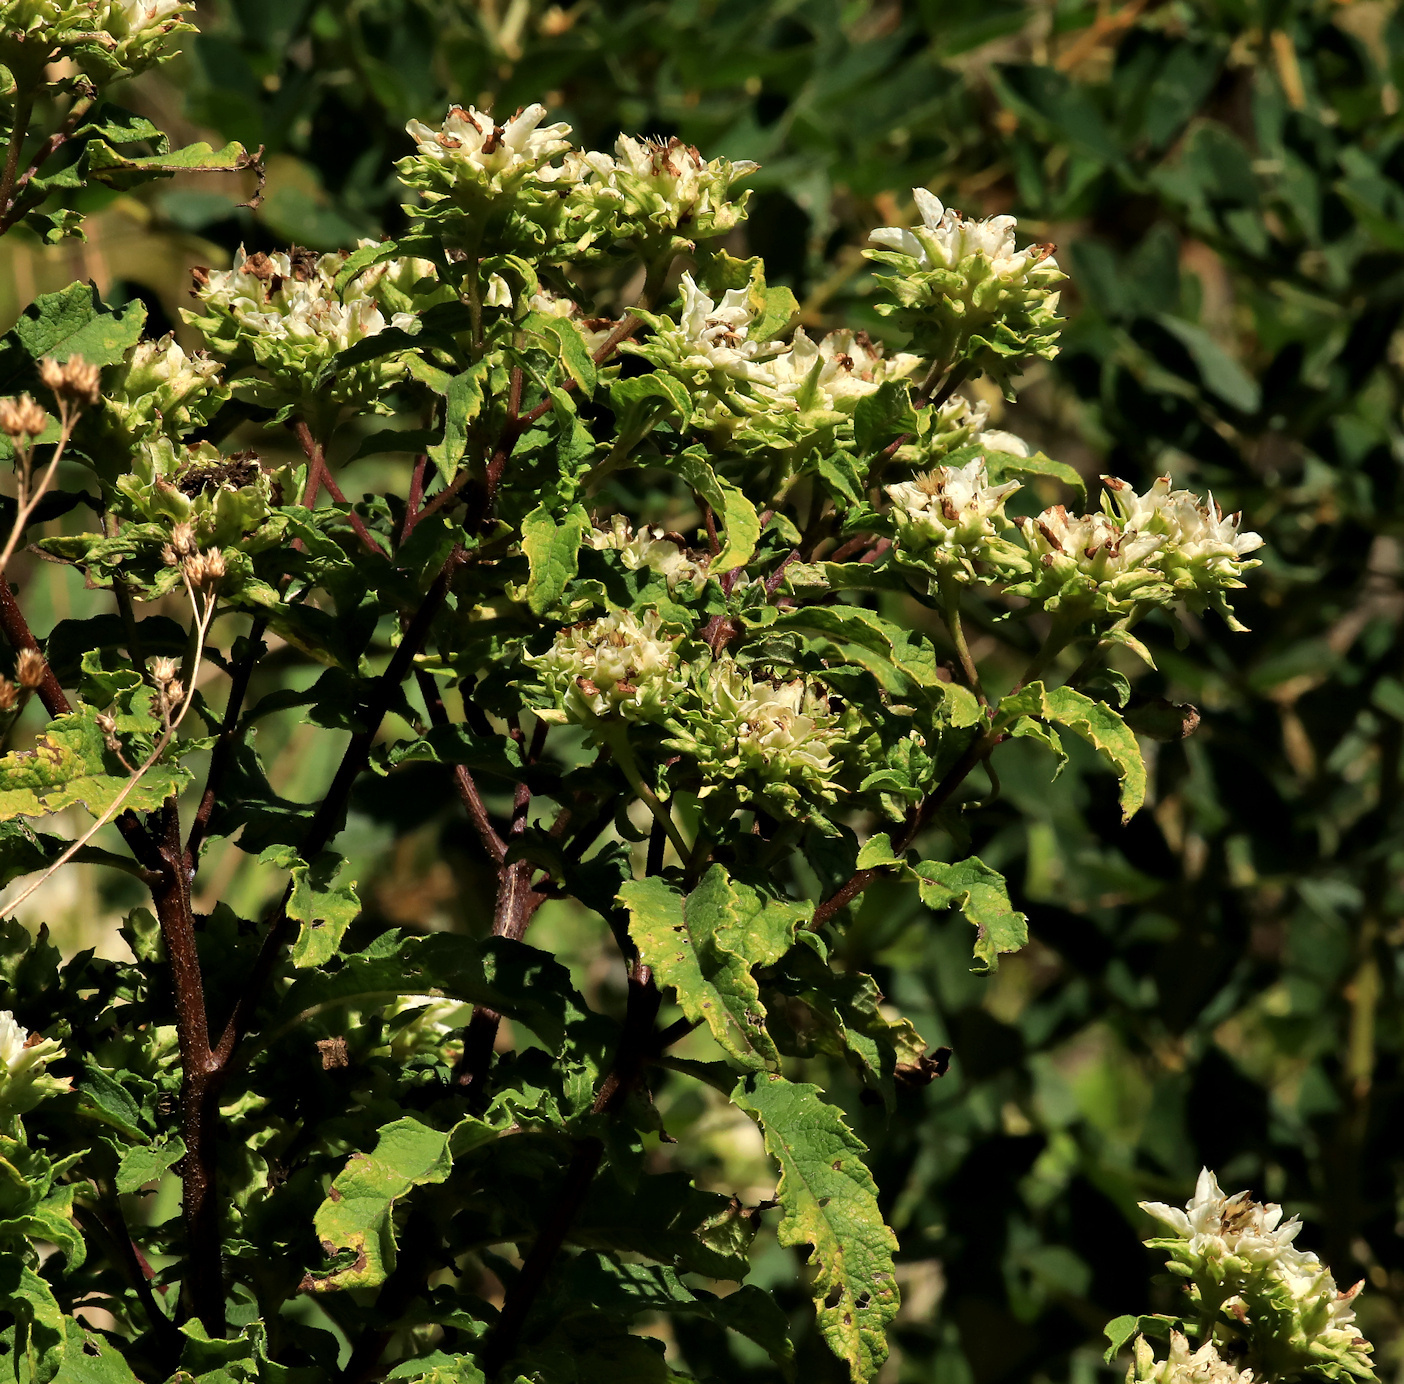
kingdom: Plantae
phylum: Tracheophyta
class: Magnoliopsida
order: Asterales
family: Asteraceae
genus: Baccharoides
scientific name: Baccharoides adoensis
